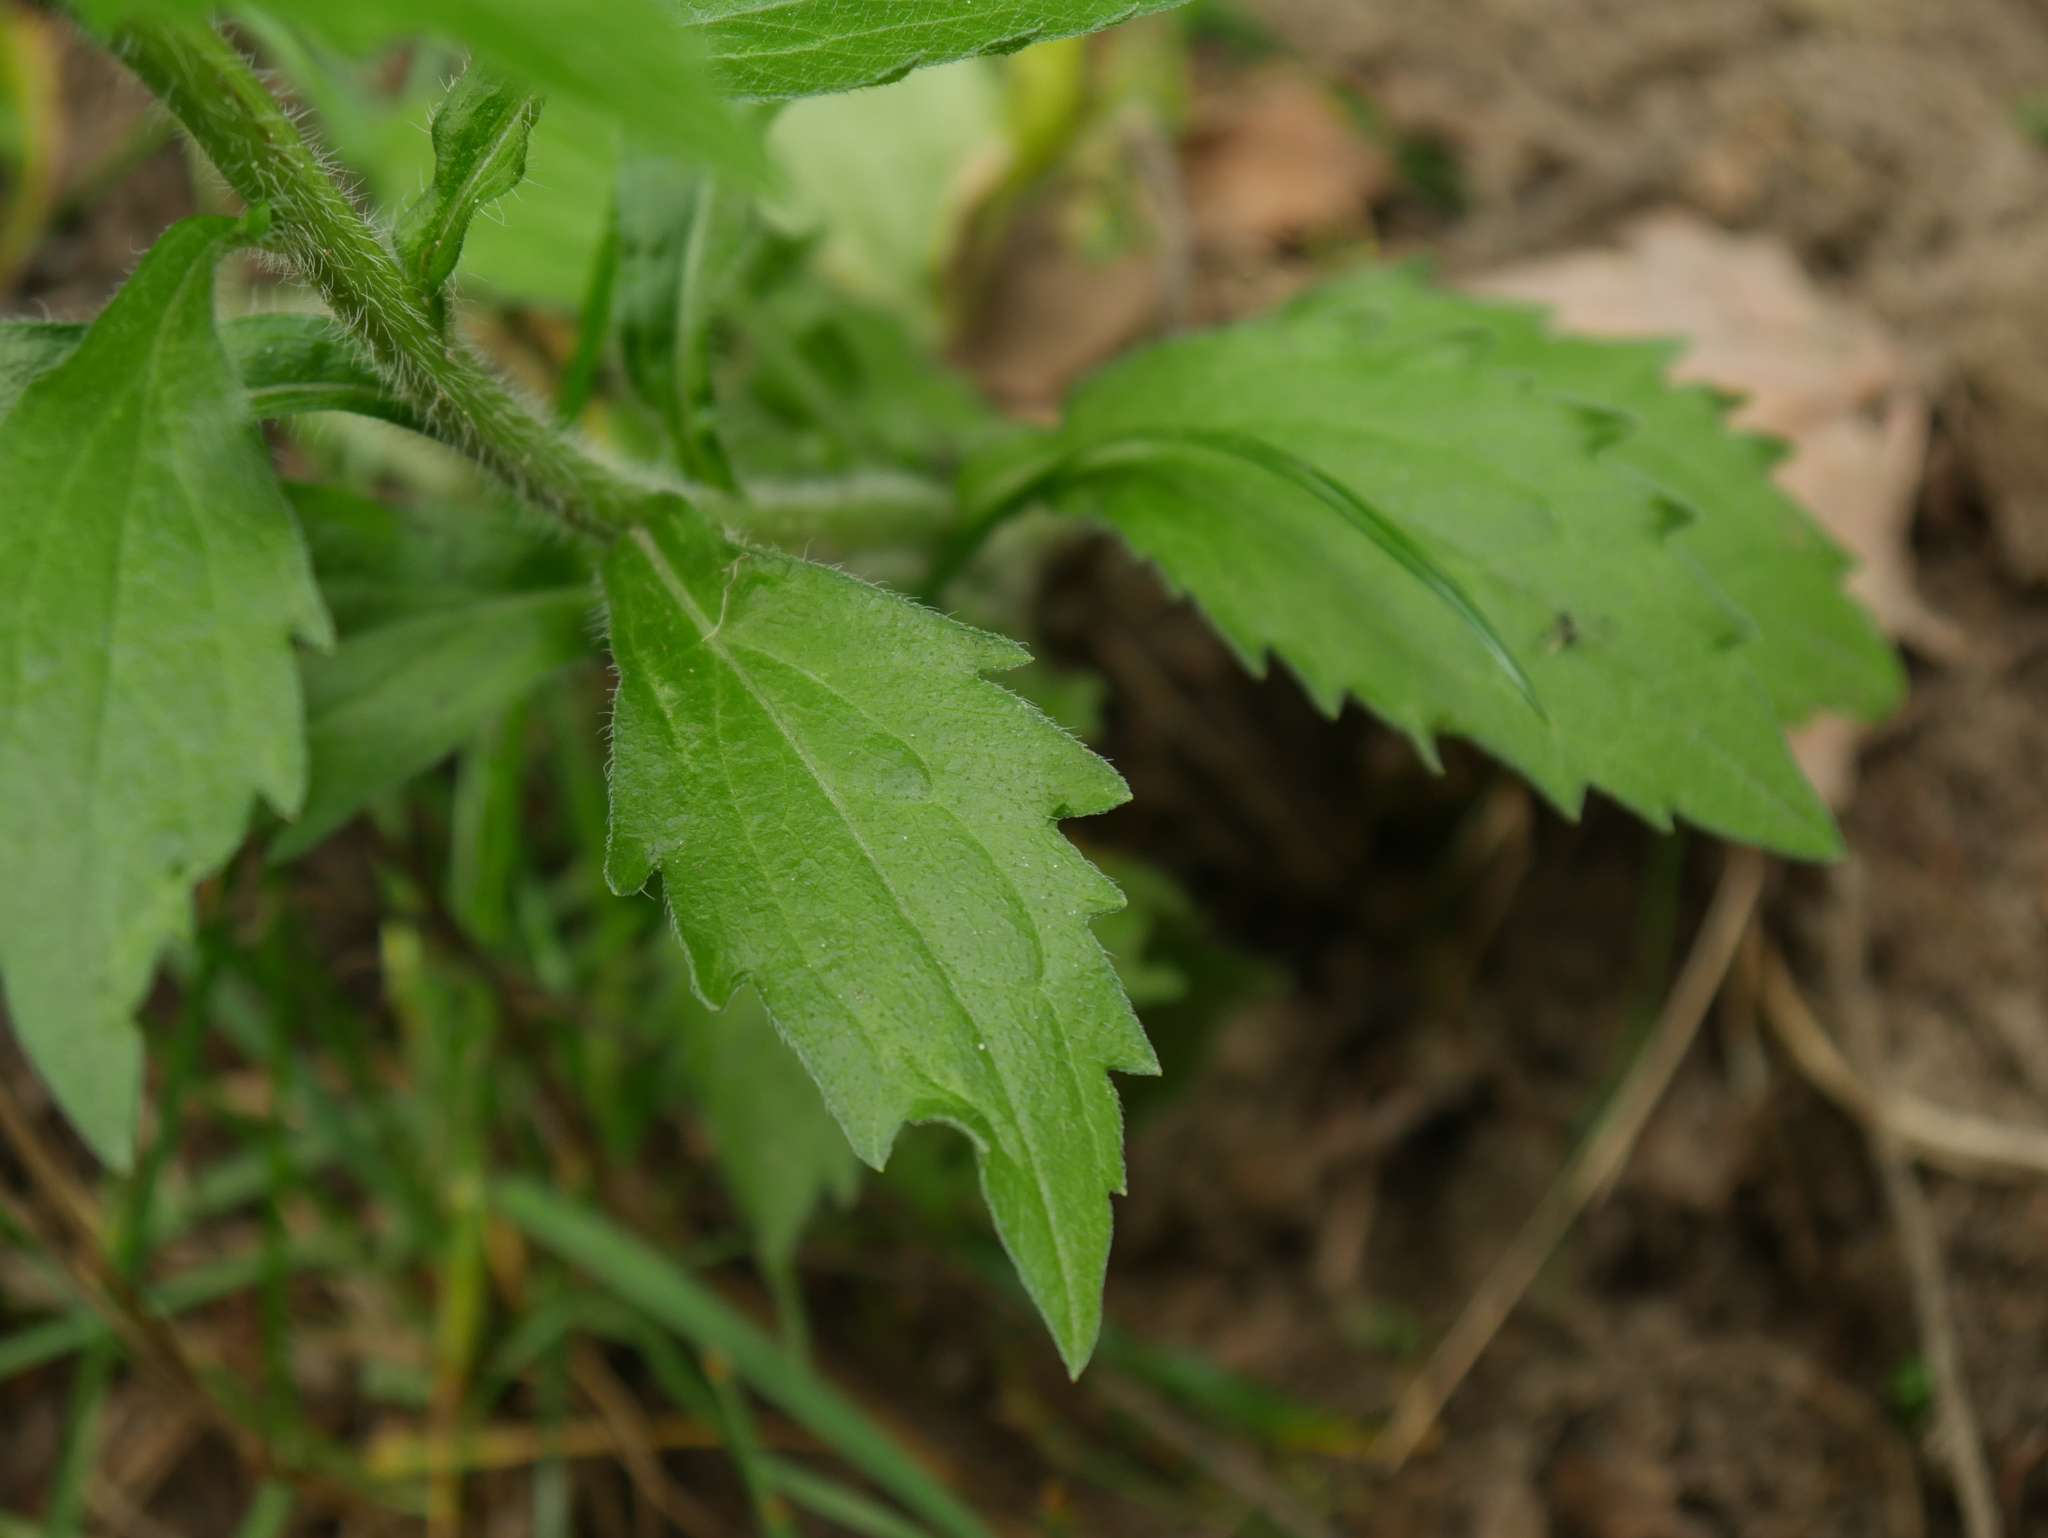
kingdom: Plantae
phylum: Tracheophyta
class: Magnoliopsida
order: Asterales
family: Asteraceae
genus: Erigeron
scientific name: Erigeron annuus
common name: Tall fleabane
